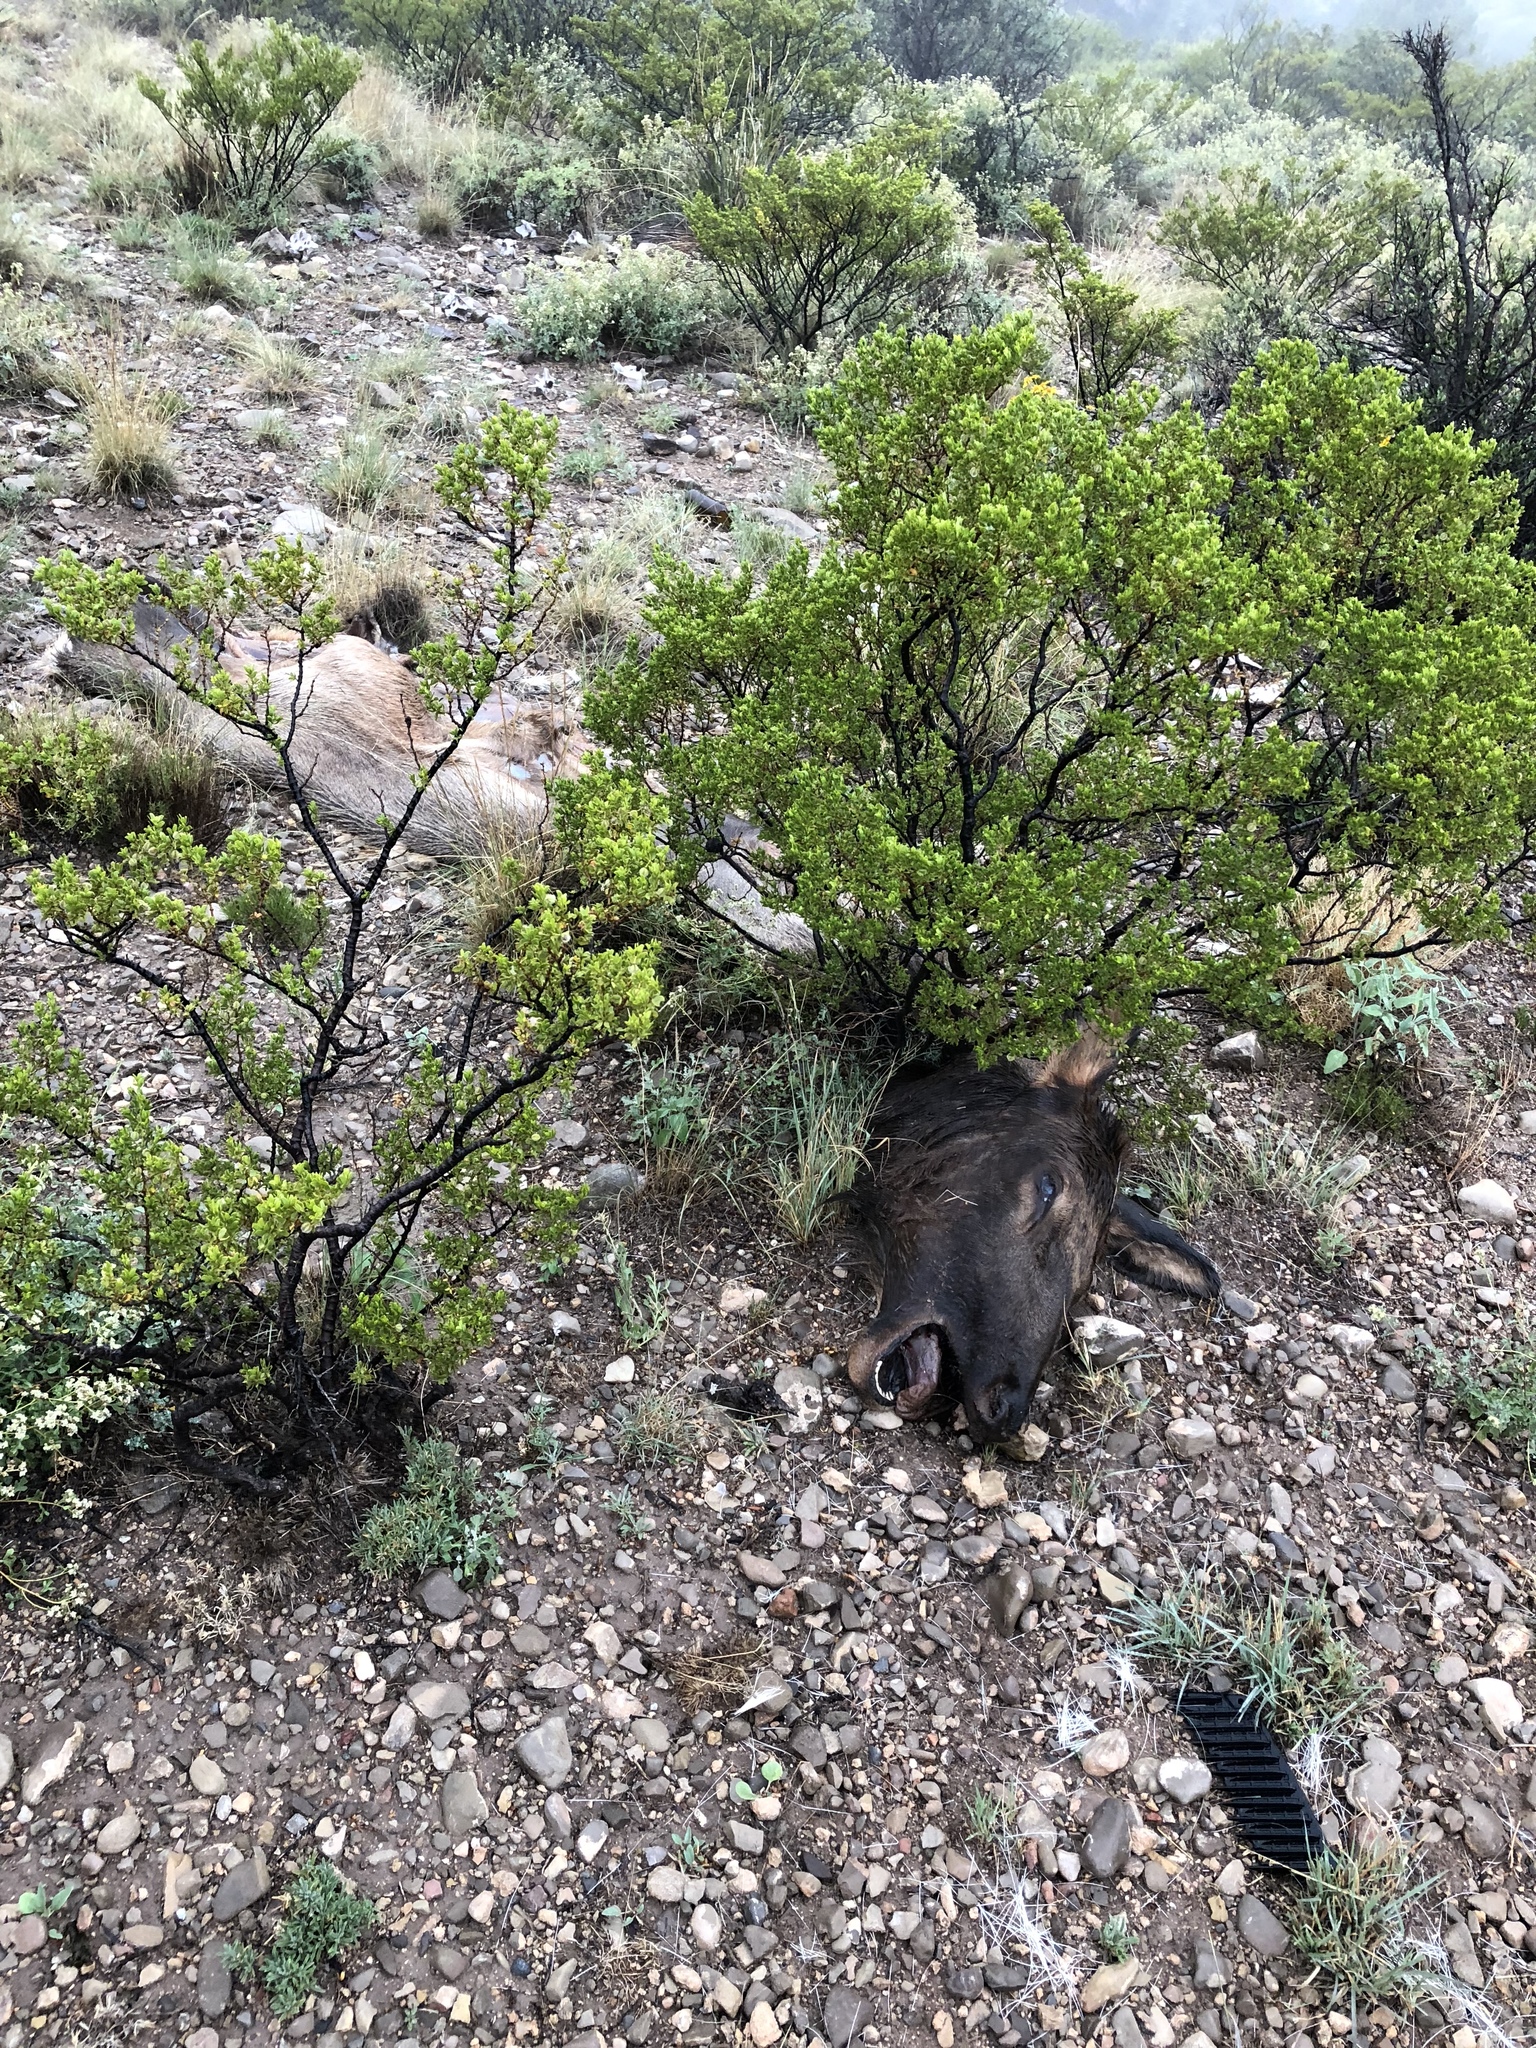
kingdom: Animalia
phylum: Chordata
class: Mammalia
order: Artiodactyla
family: Cervidae
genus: Cervus
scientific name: Cervus elaphus
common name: Red deer
